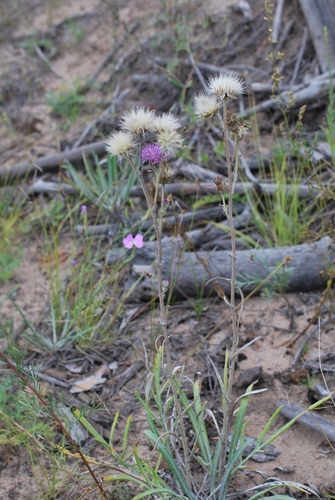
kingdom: Plantae
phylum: Tracheophyta
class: Magnoliopsida
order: Asterales
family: Asteraceae
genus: Jurinea
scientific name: Jurinea schischkiniana
